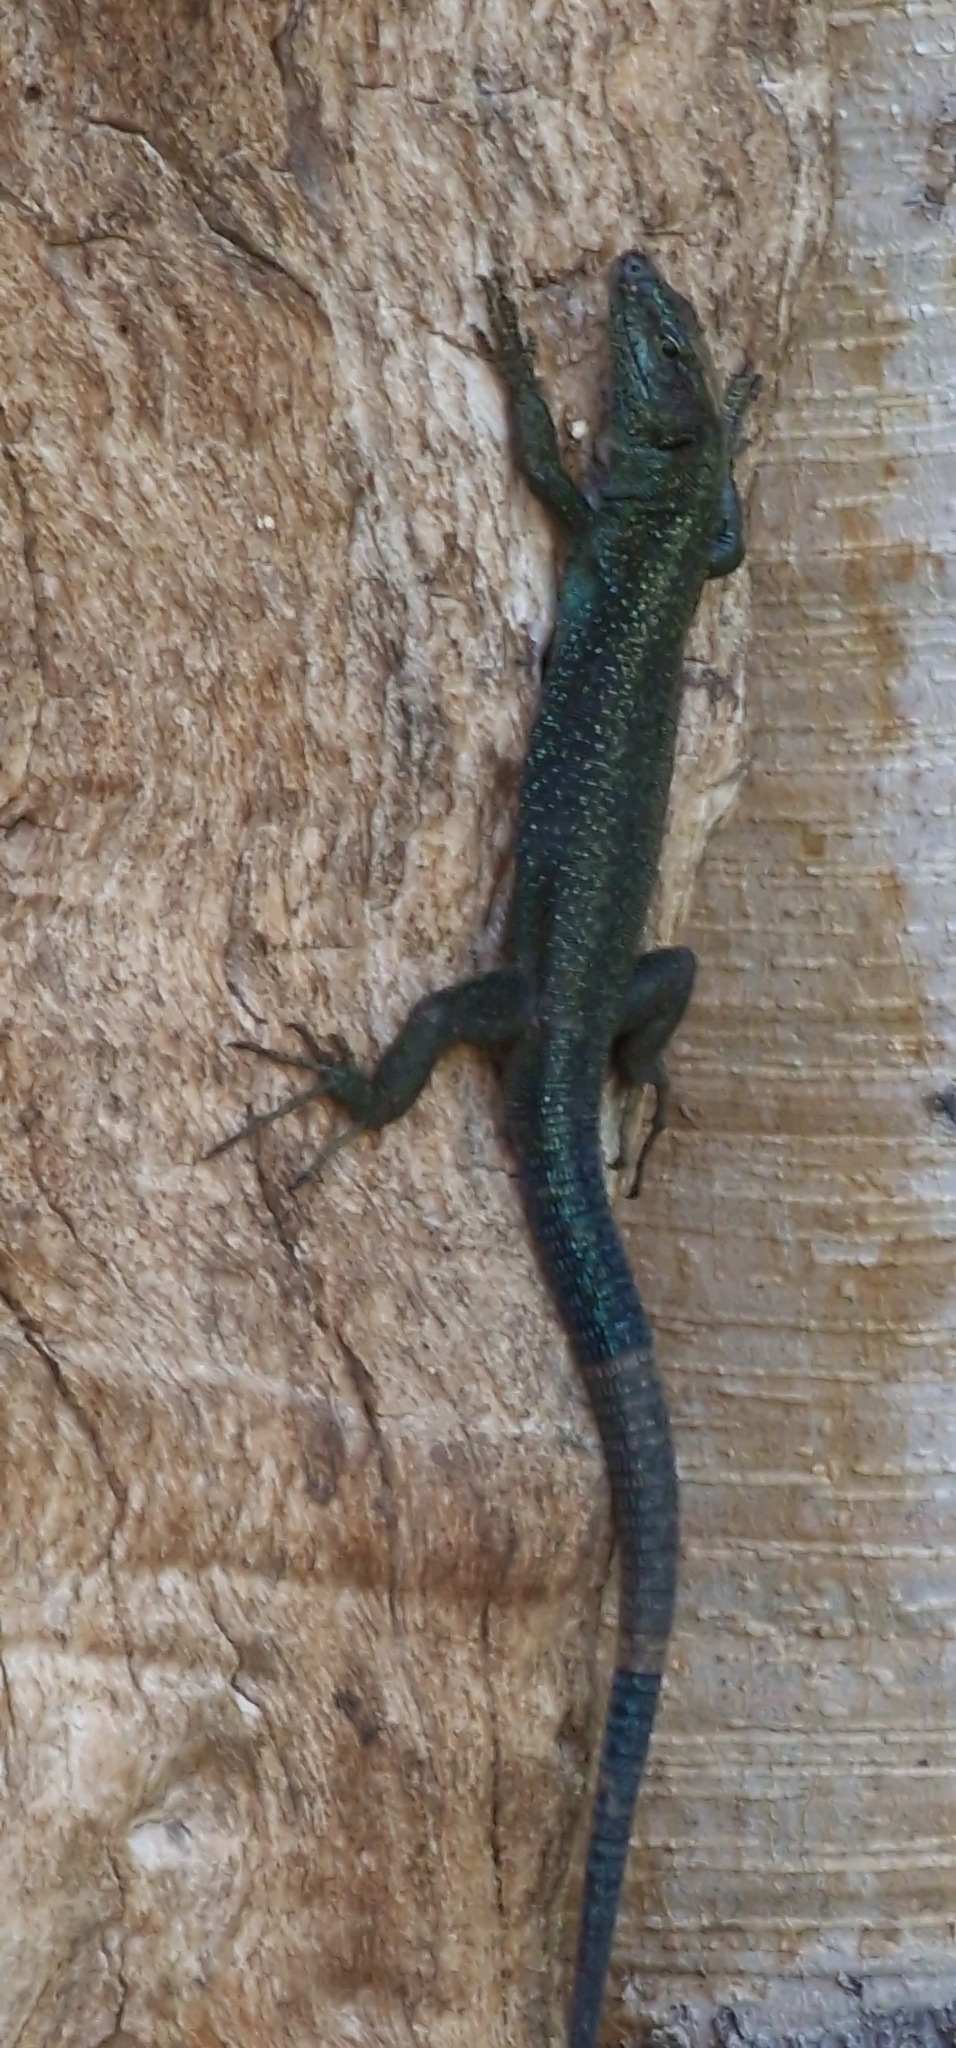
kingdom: Animalia
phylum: Chordata
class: Squamata
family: Lacertidae
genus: Teira
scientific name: Teira dugesii
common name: Madeira lizard
